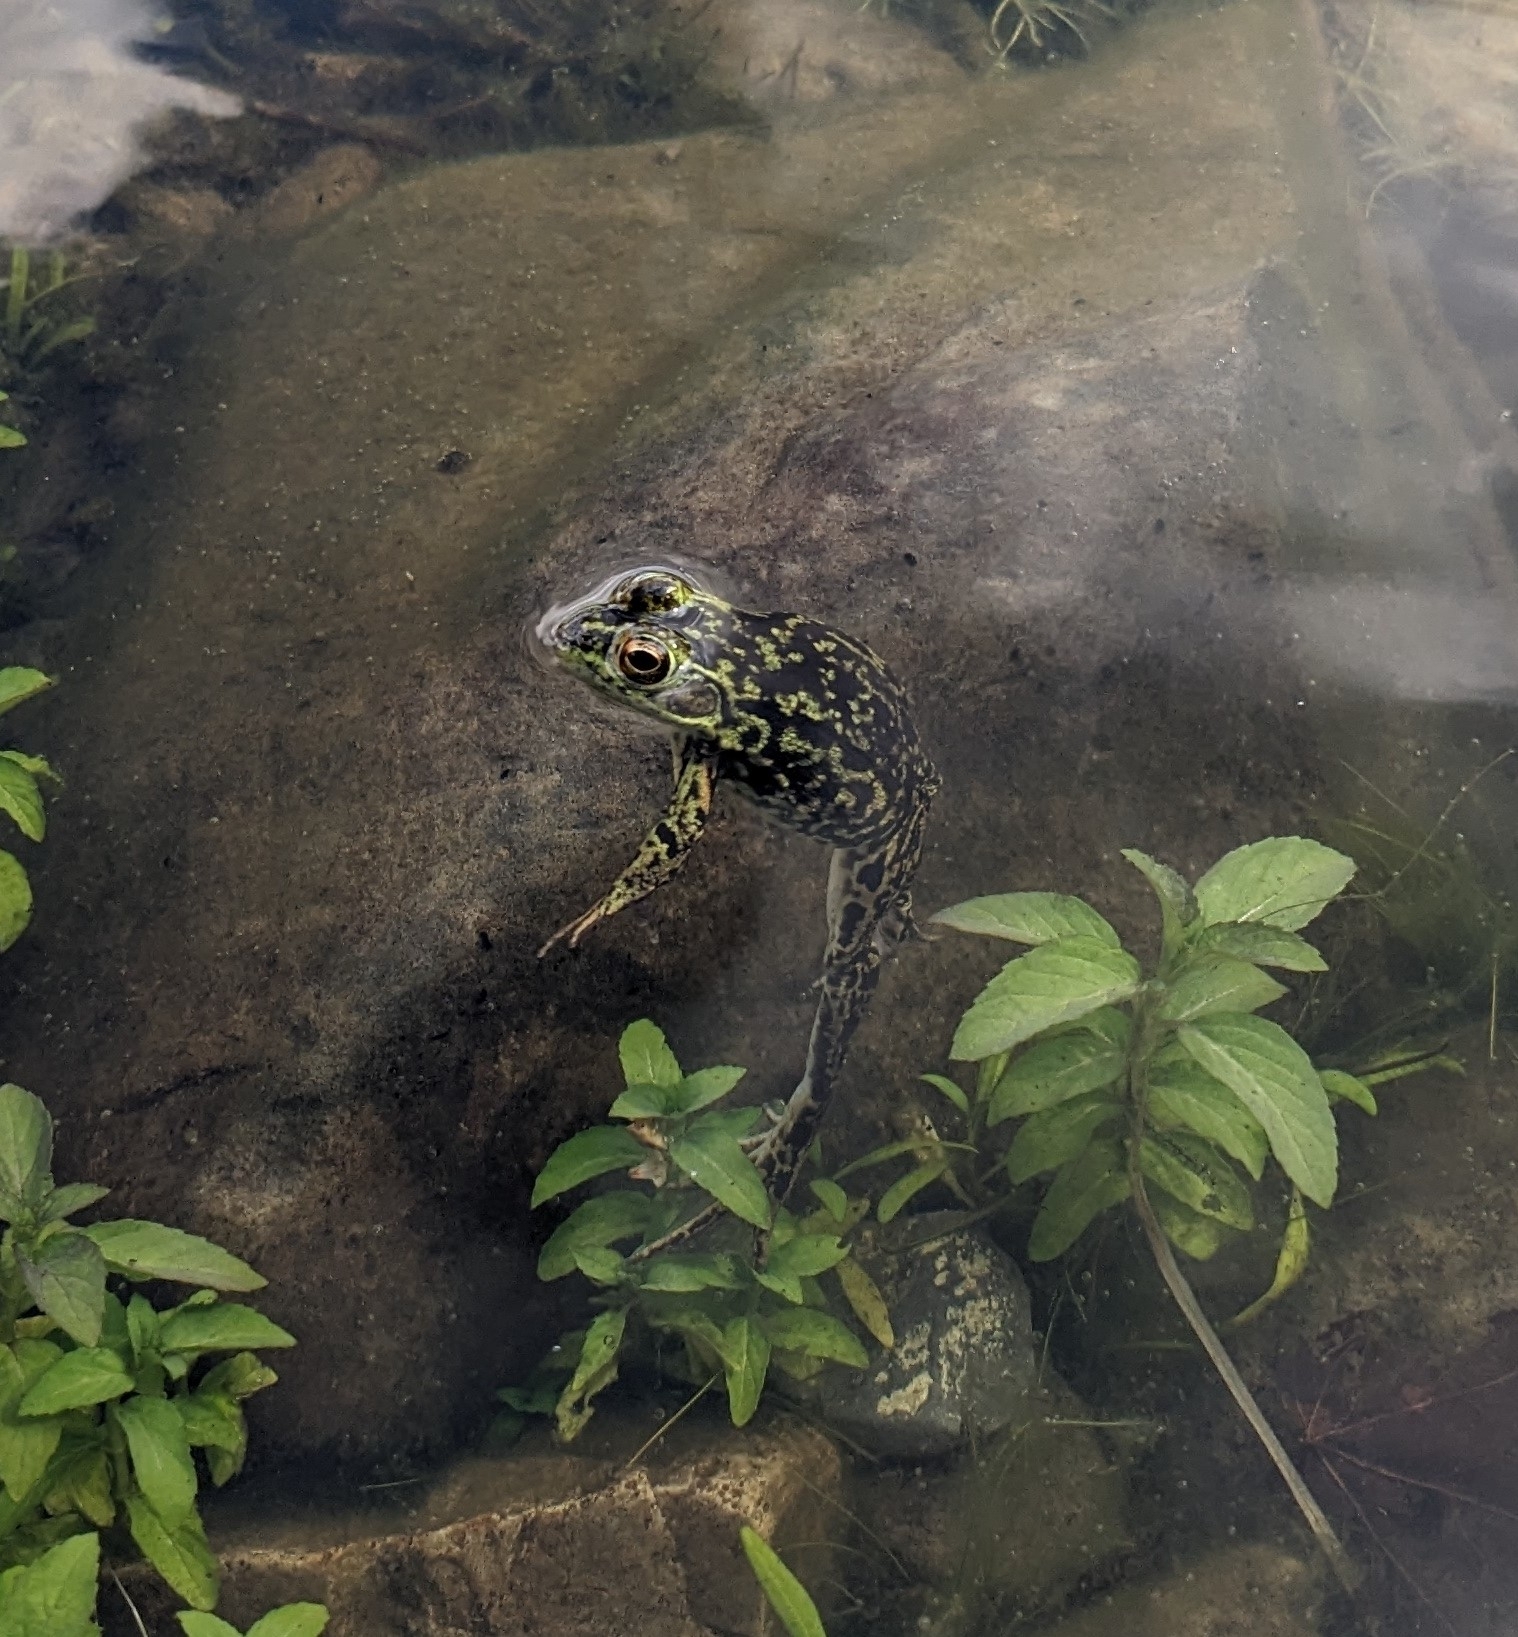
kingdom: Animalia
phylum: Chordata
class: Amphibia
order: Anura
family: Ranidae
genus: Lithobates
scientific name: Lithobates septentrionalis
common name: Mink frog
